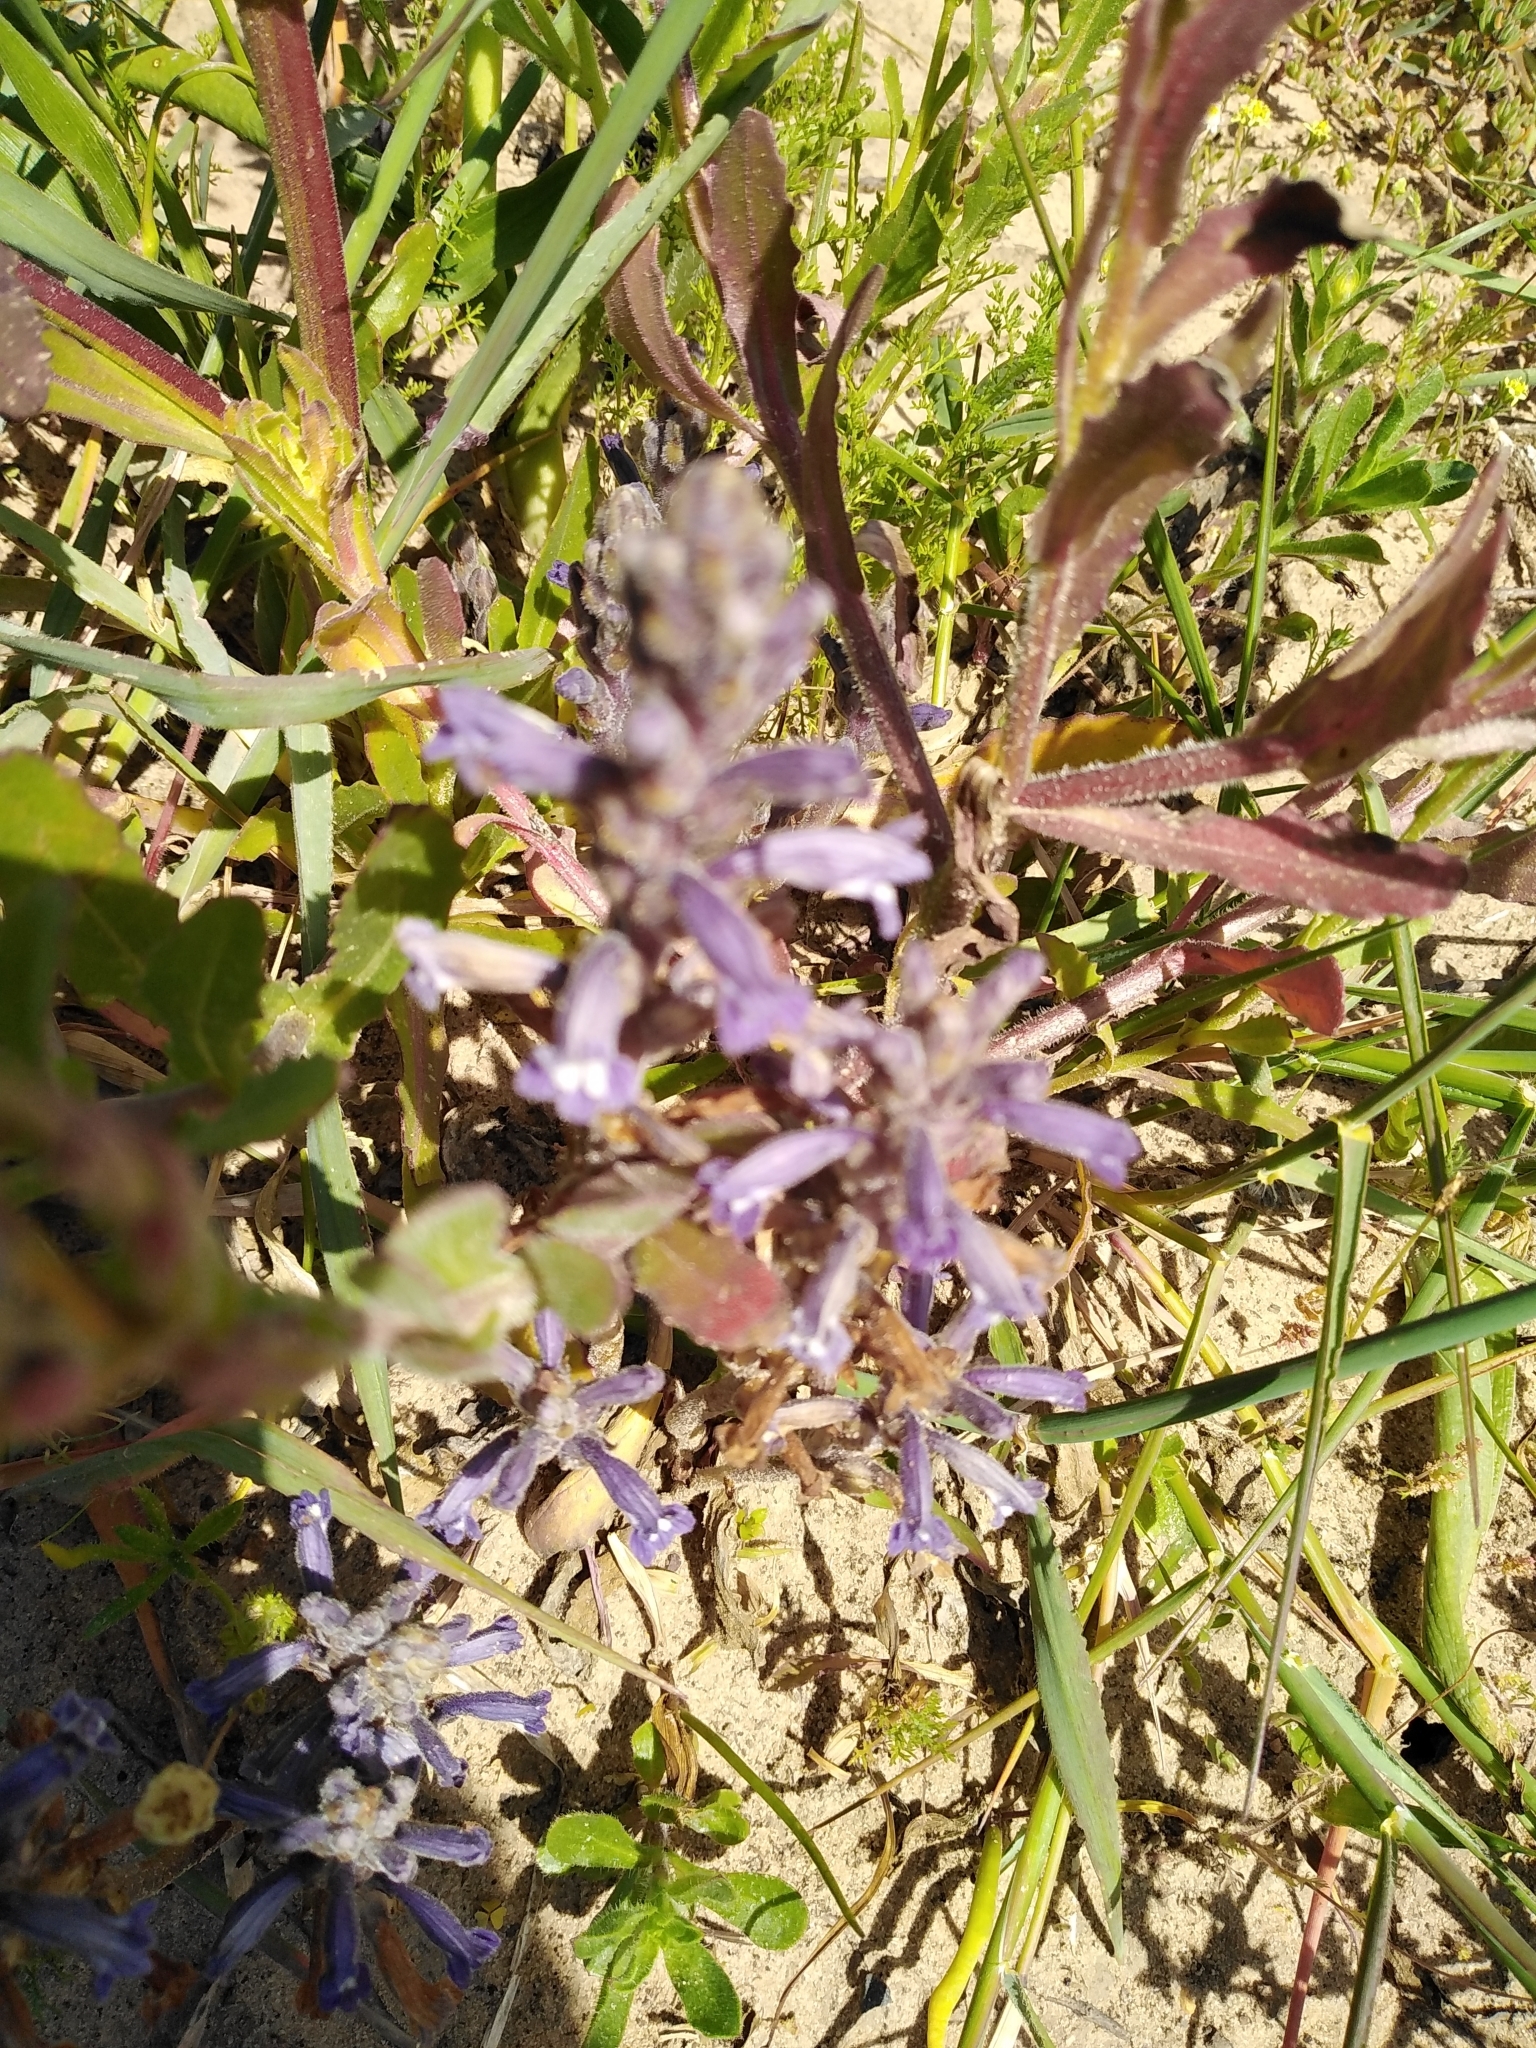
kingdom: Plantae
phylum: Tracheophyta
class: Magnoliopsida
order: Lamiales
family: Orobanchaceae
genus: Phelipanche
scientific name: Phelipanche mutelii
